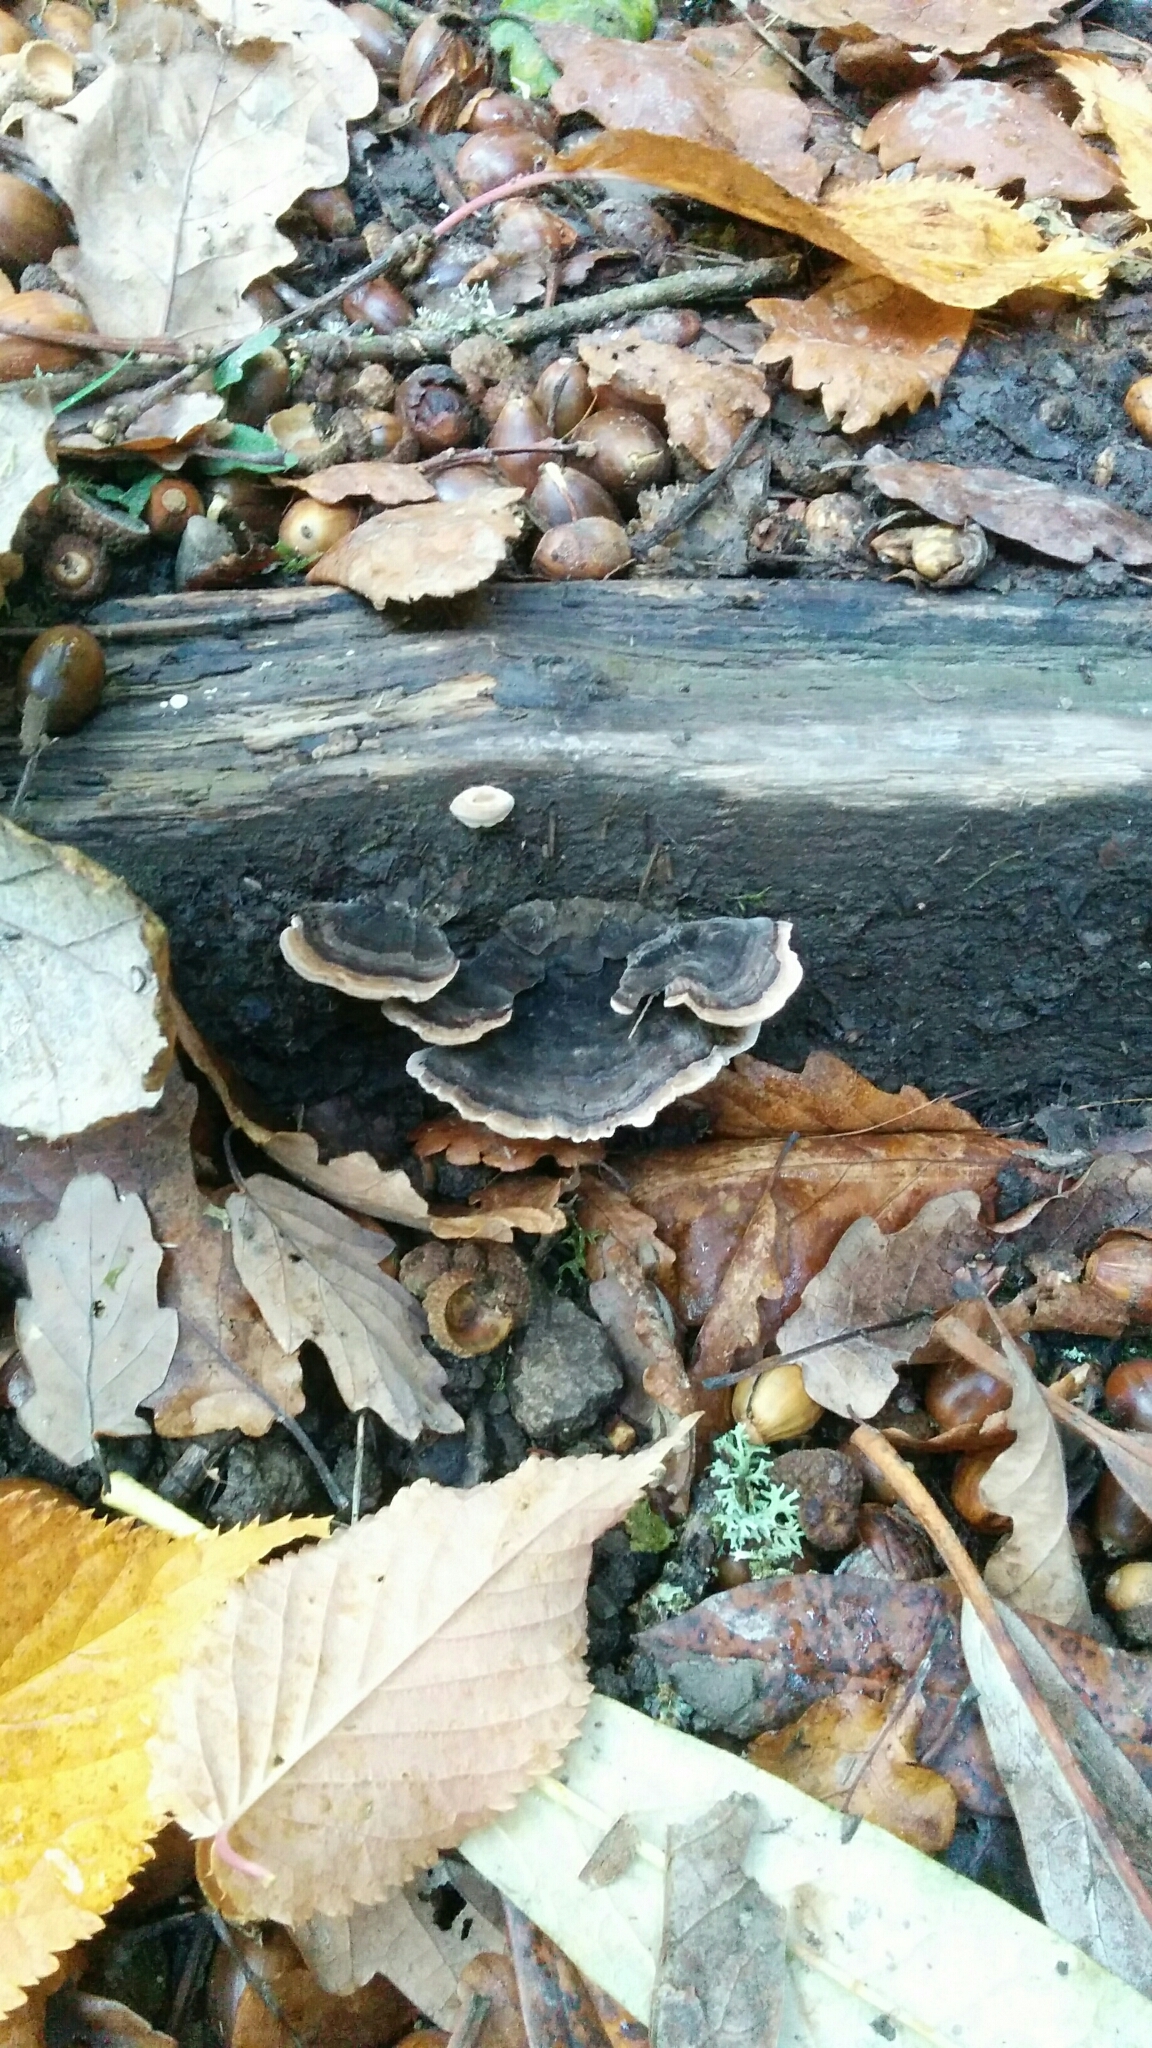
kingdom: Fungi
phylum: Basidiomycota
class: Agaricomycetes
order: Polyporales
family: Polyporaceae
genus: Trametes
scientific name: Trametes versicolor
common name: Turkeytail
